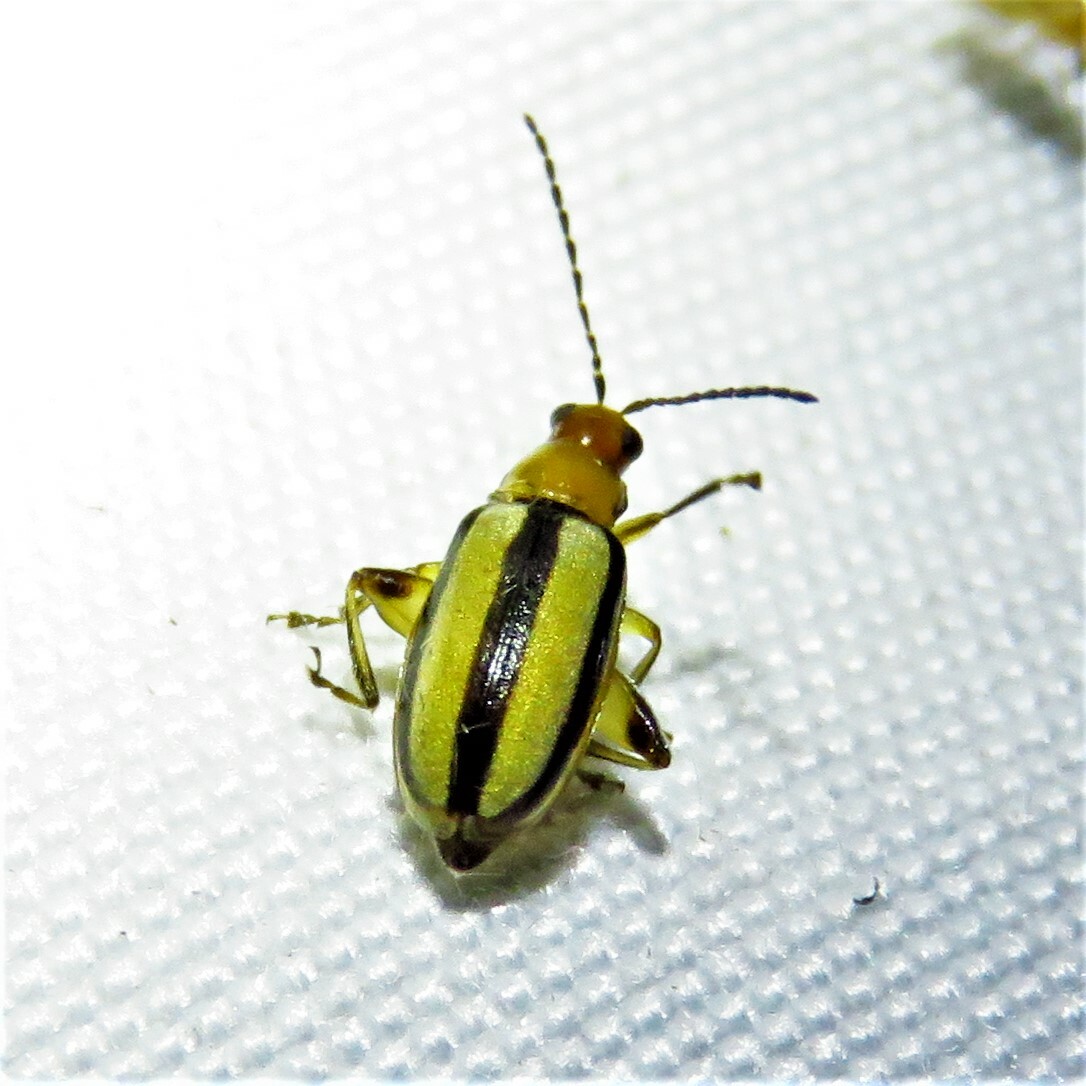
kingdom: Animalia
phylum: Arthropoda
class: Insecta
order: Coleoptera
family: Chrysomelidae
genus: Systena
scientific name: Systena gracilenta
